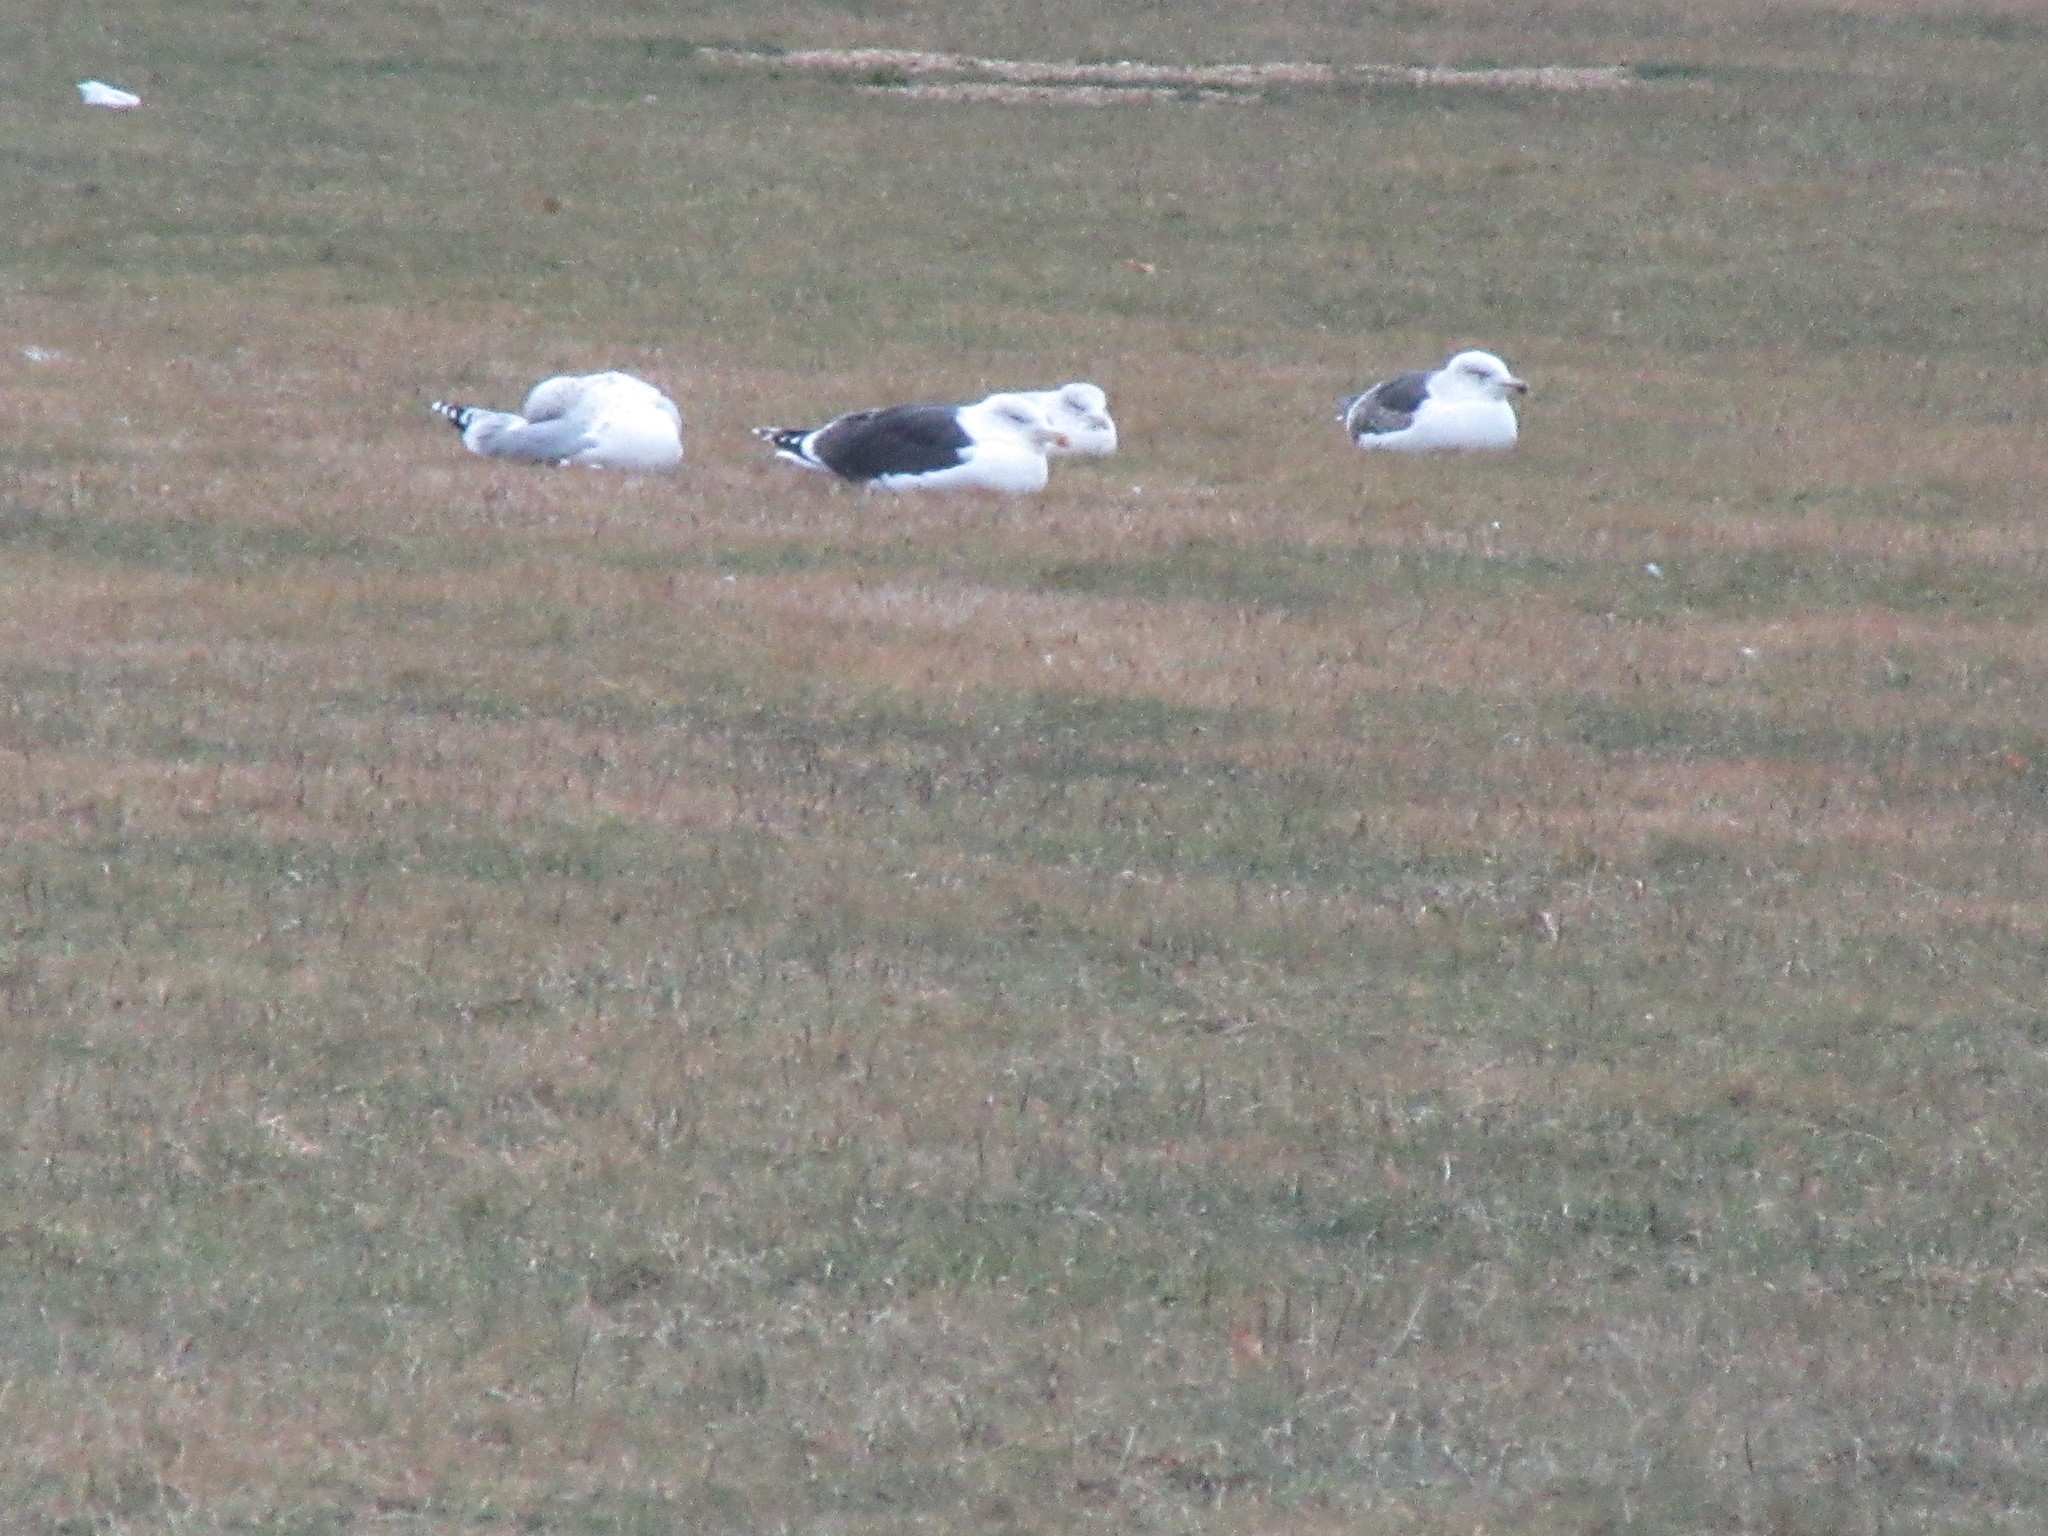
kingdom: Animalia
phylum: Chordata
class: Aves
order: Charadriiformes
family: Laridae
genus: Larus
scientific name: Larus marinus
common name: Great black-backed gull
